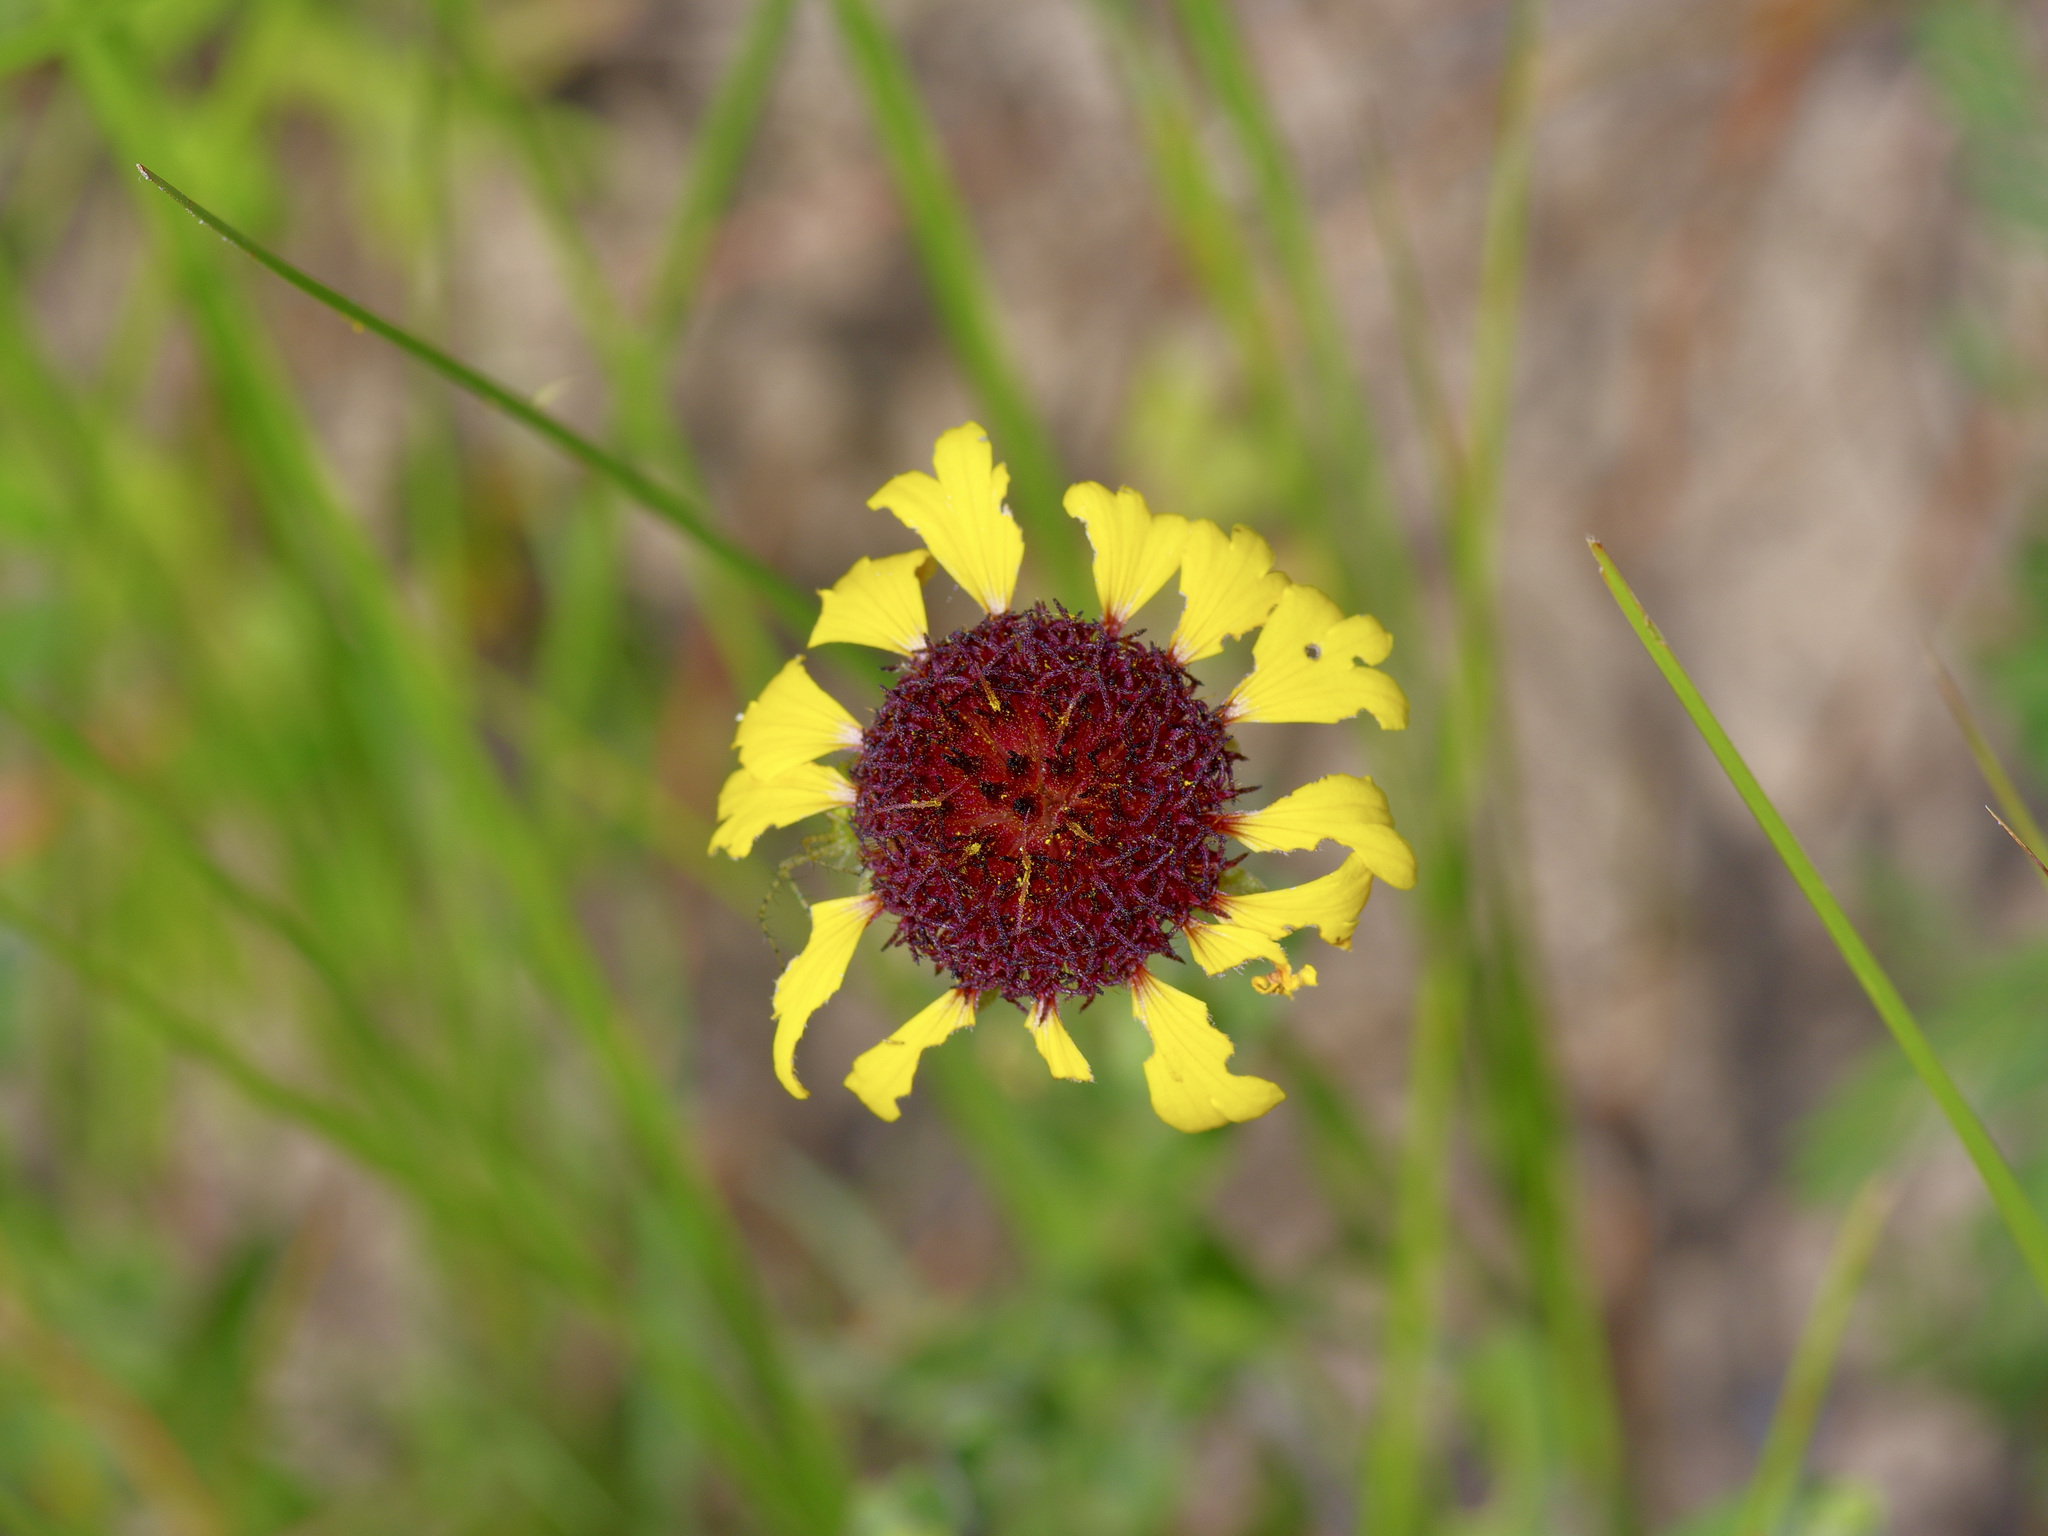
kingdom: Plantae
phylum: Tracheophyta
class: Magnoliopsida
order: Asterales
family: Asteraceae
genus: Gaillardia
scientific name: Gaillardia aestivalis
